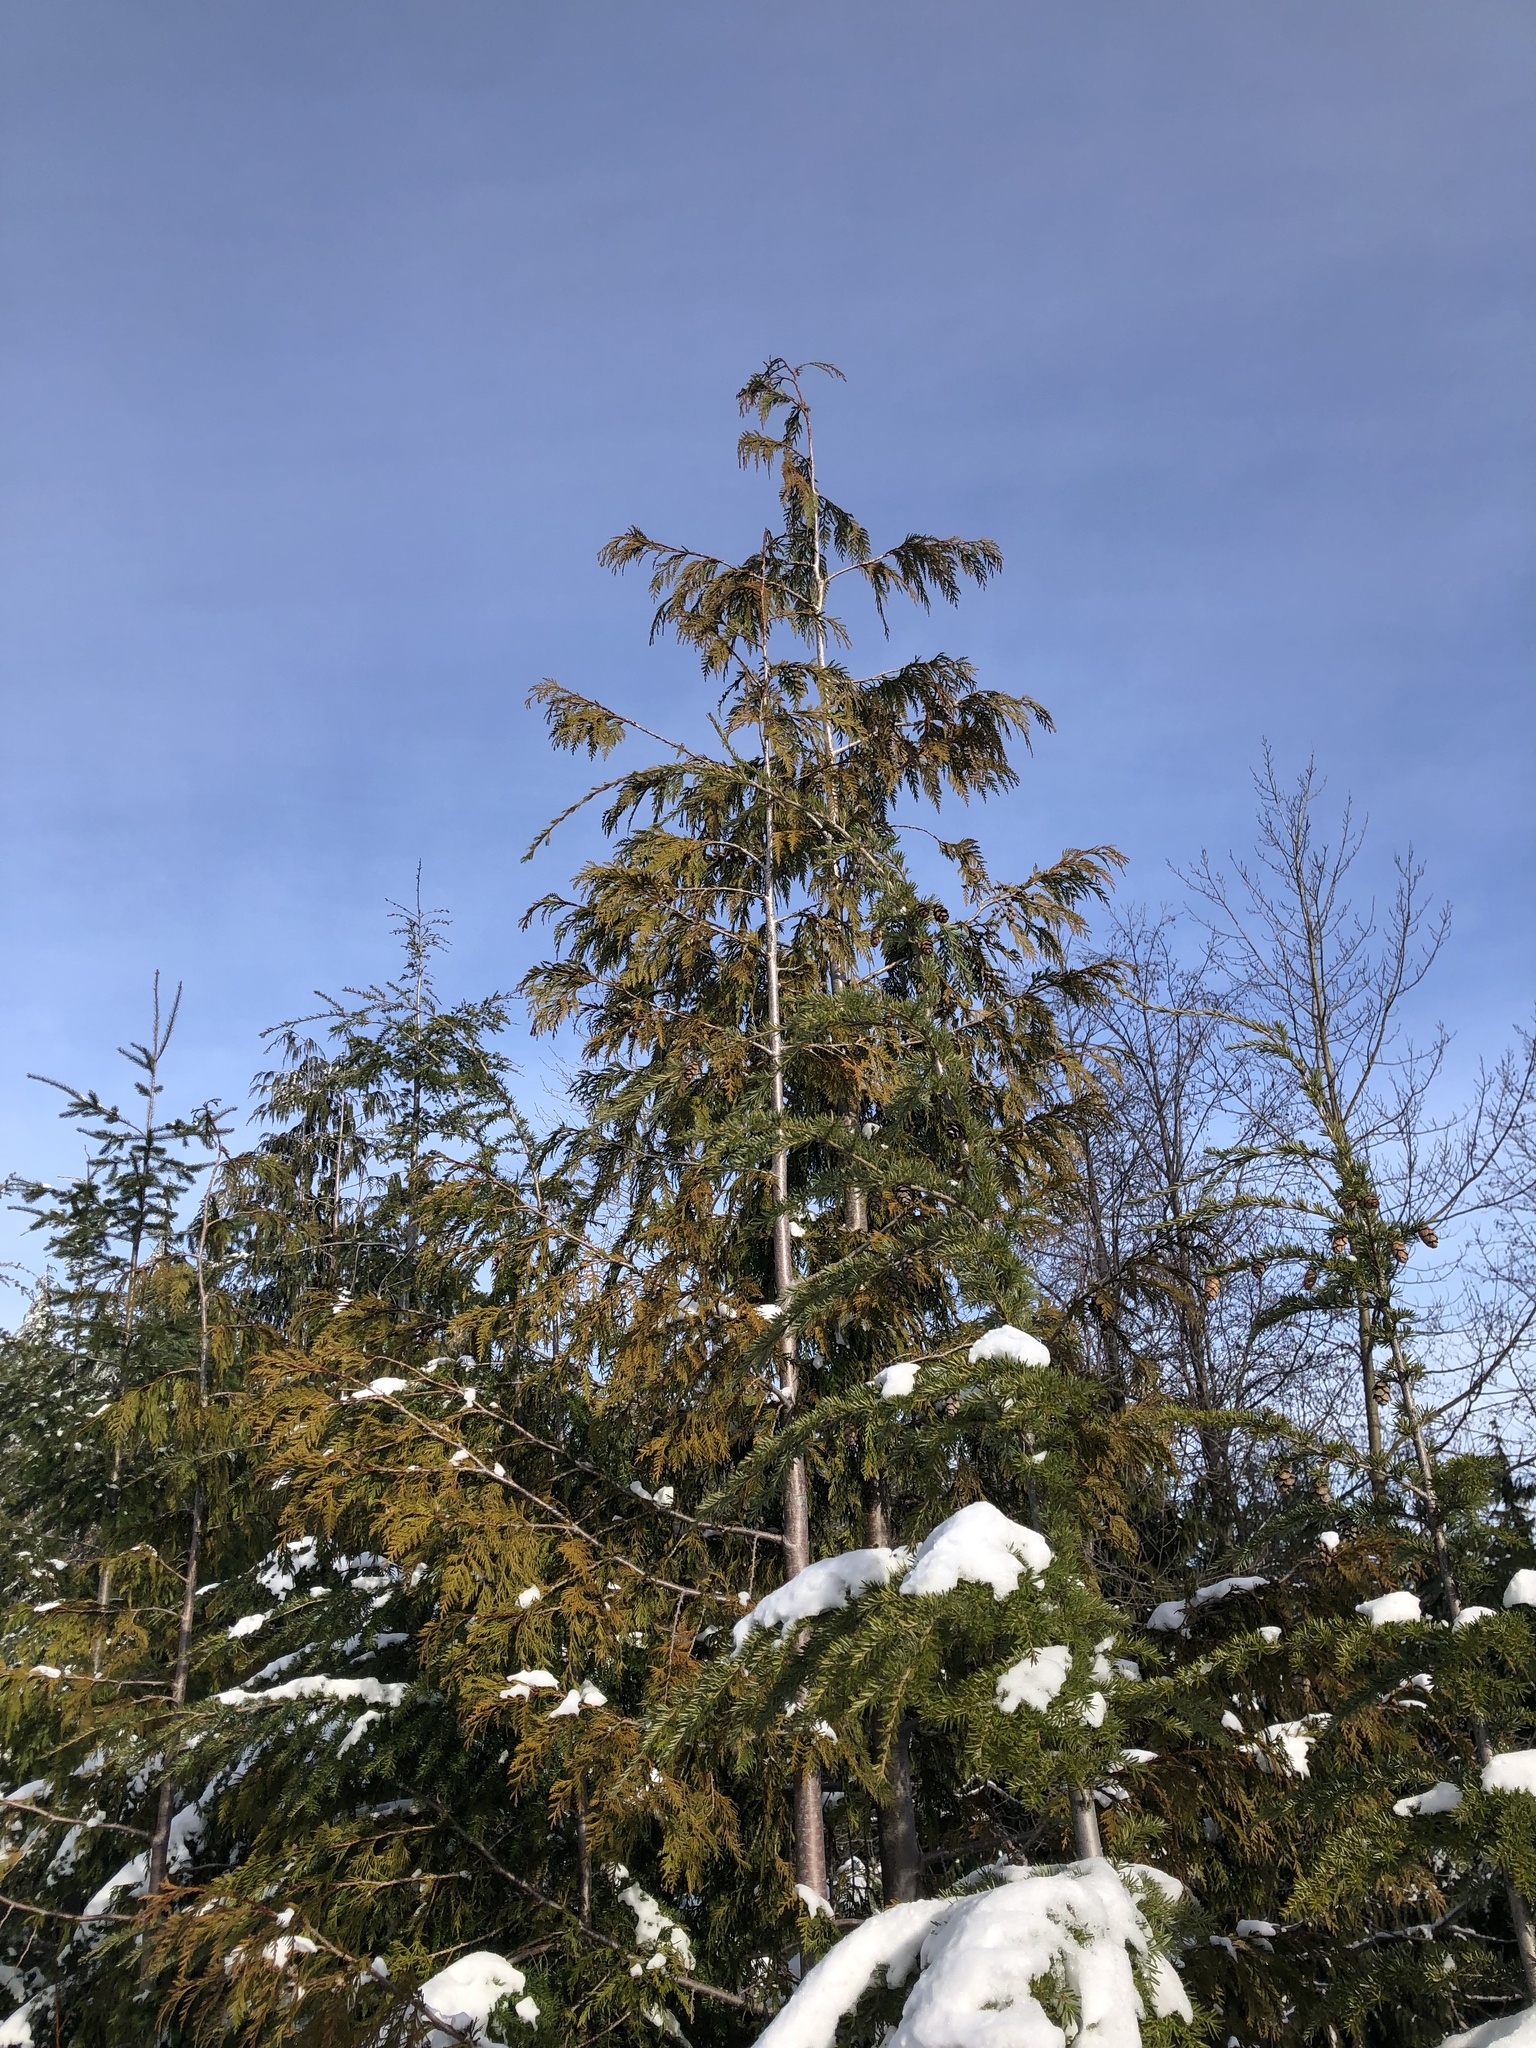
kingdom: Plantae
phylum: Tracheophyta
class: Pinopsida
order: Pinales
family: Cupressaceae
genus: Thuja
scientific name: Thuja plicata
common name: Western red-cedar
